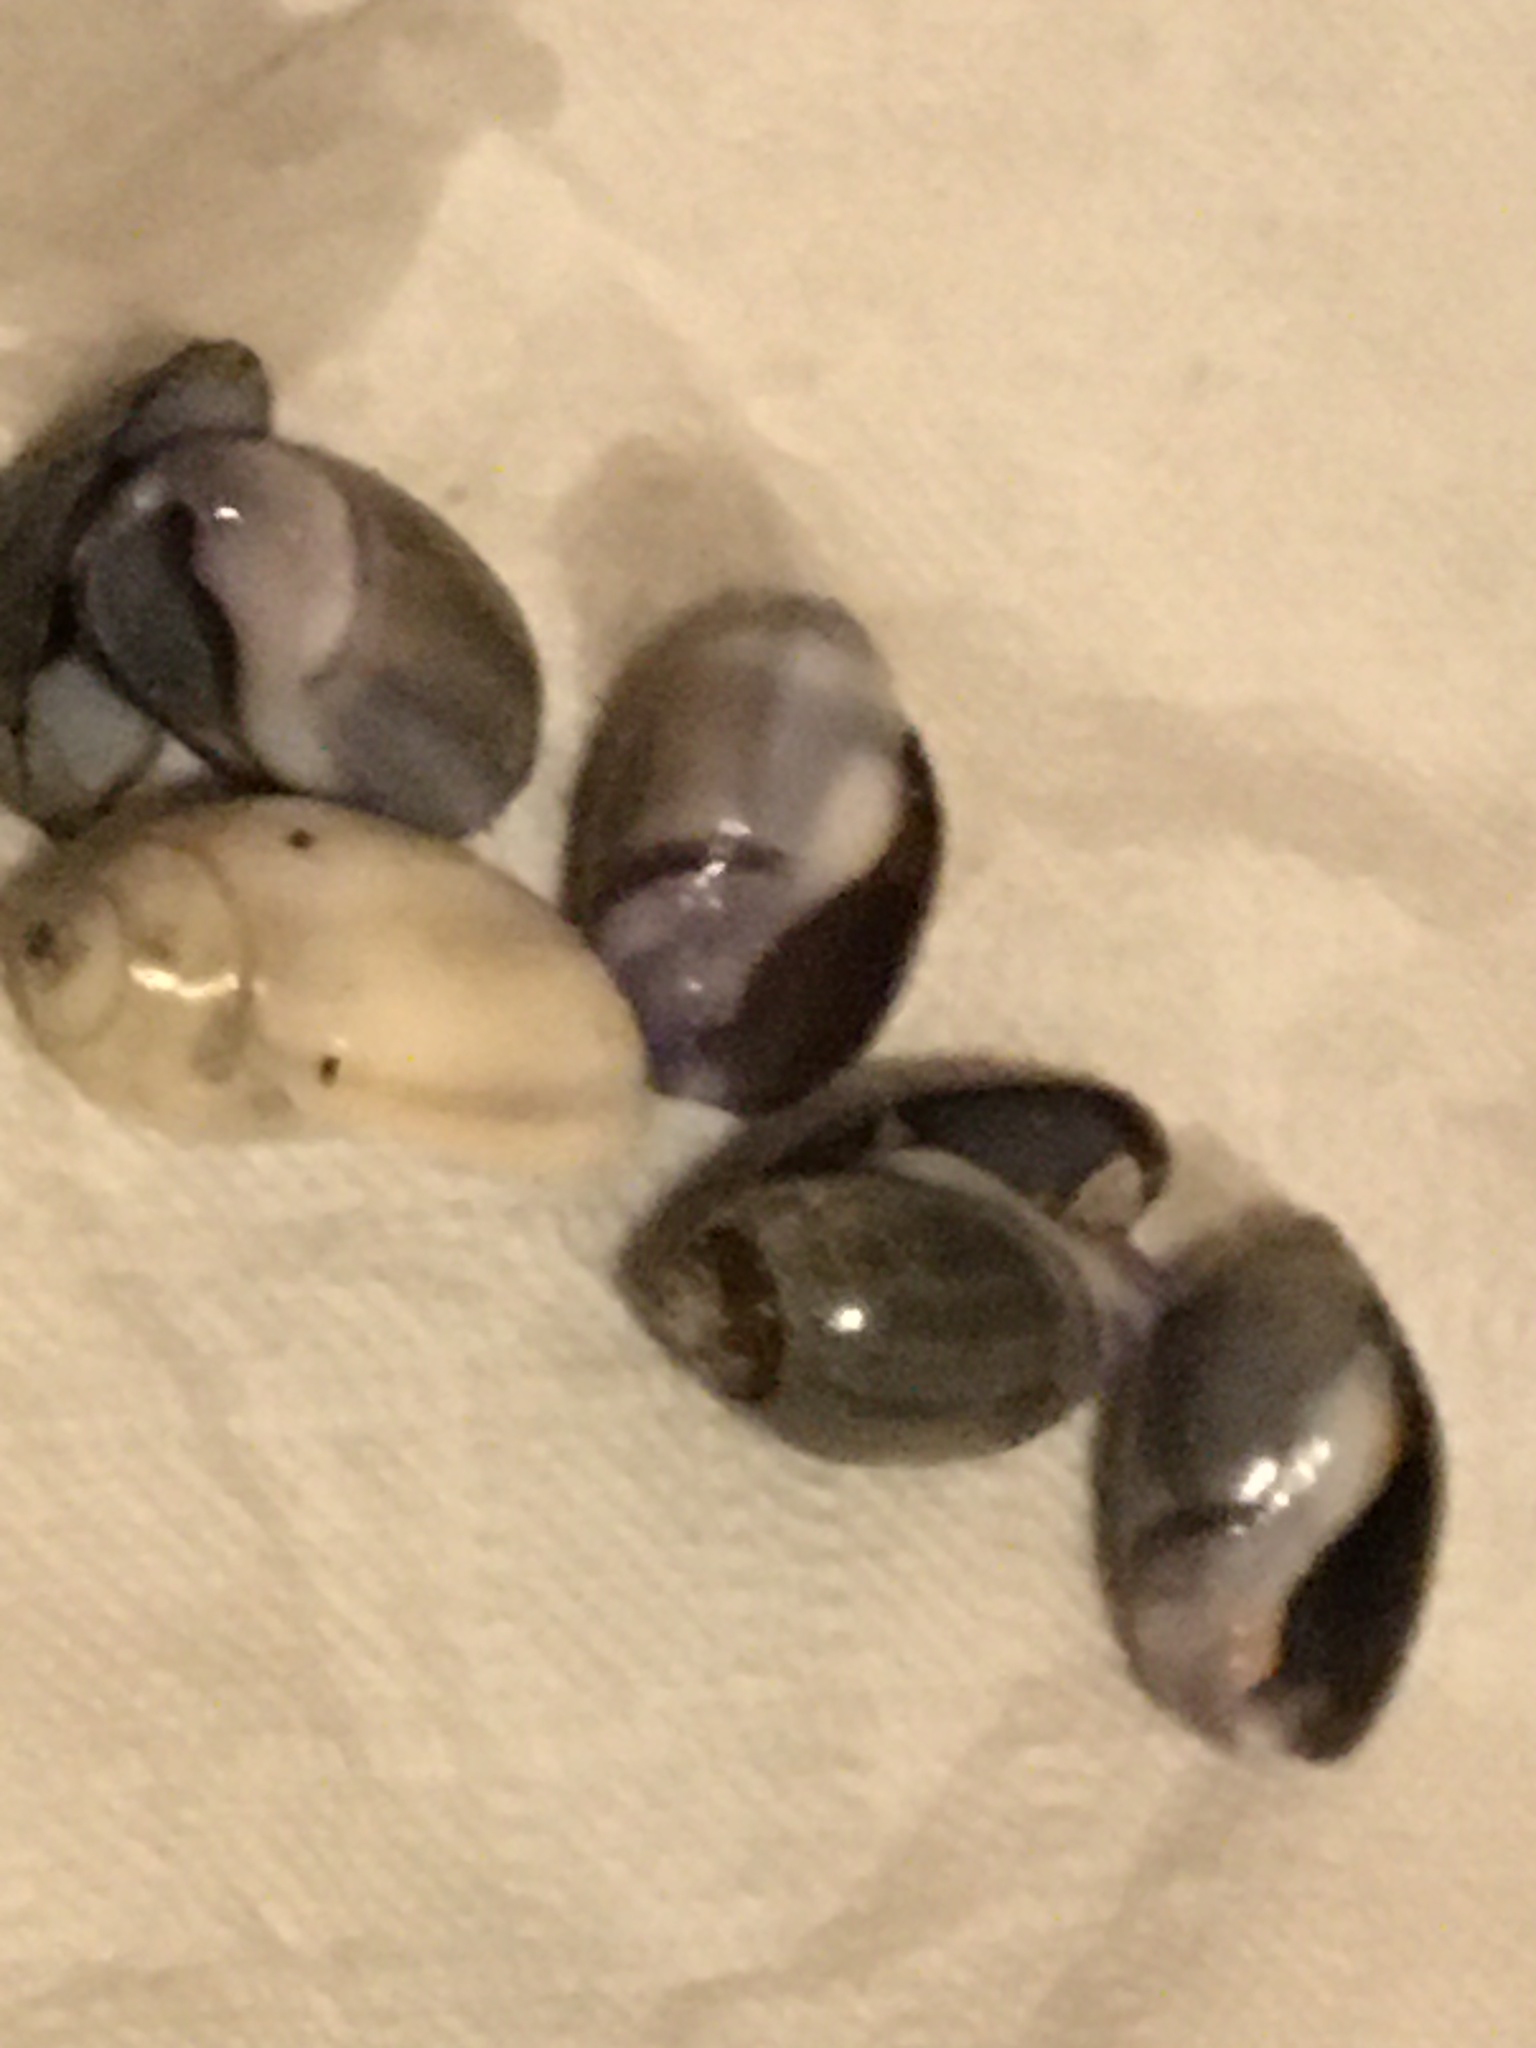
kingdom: Animalia
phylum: Mollusca
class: Gastropoda
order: Neogastropoda
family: Olividae
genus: Callianax
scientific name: Callianax biplicata
